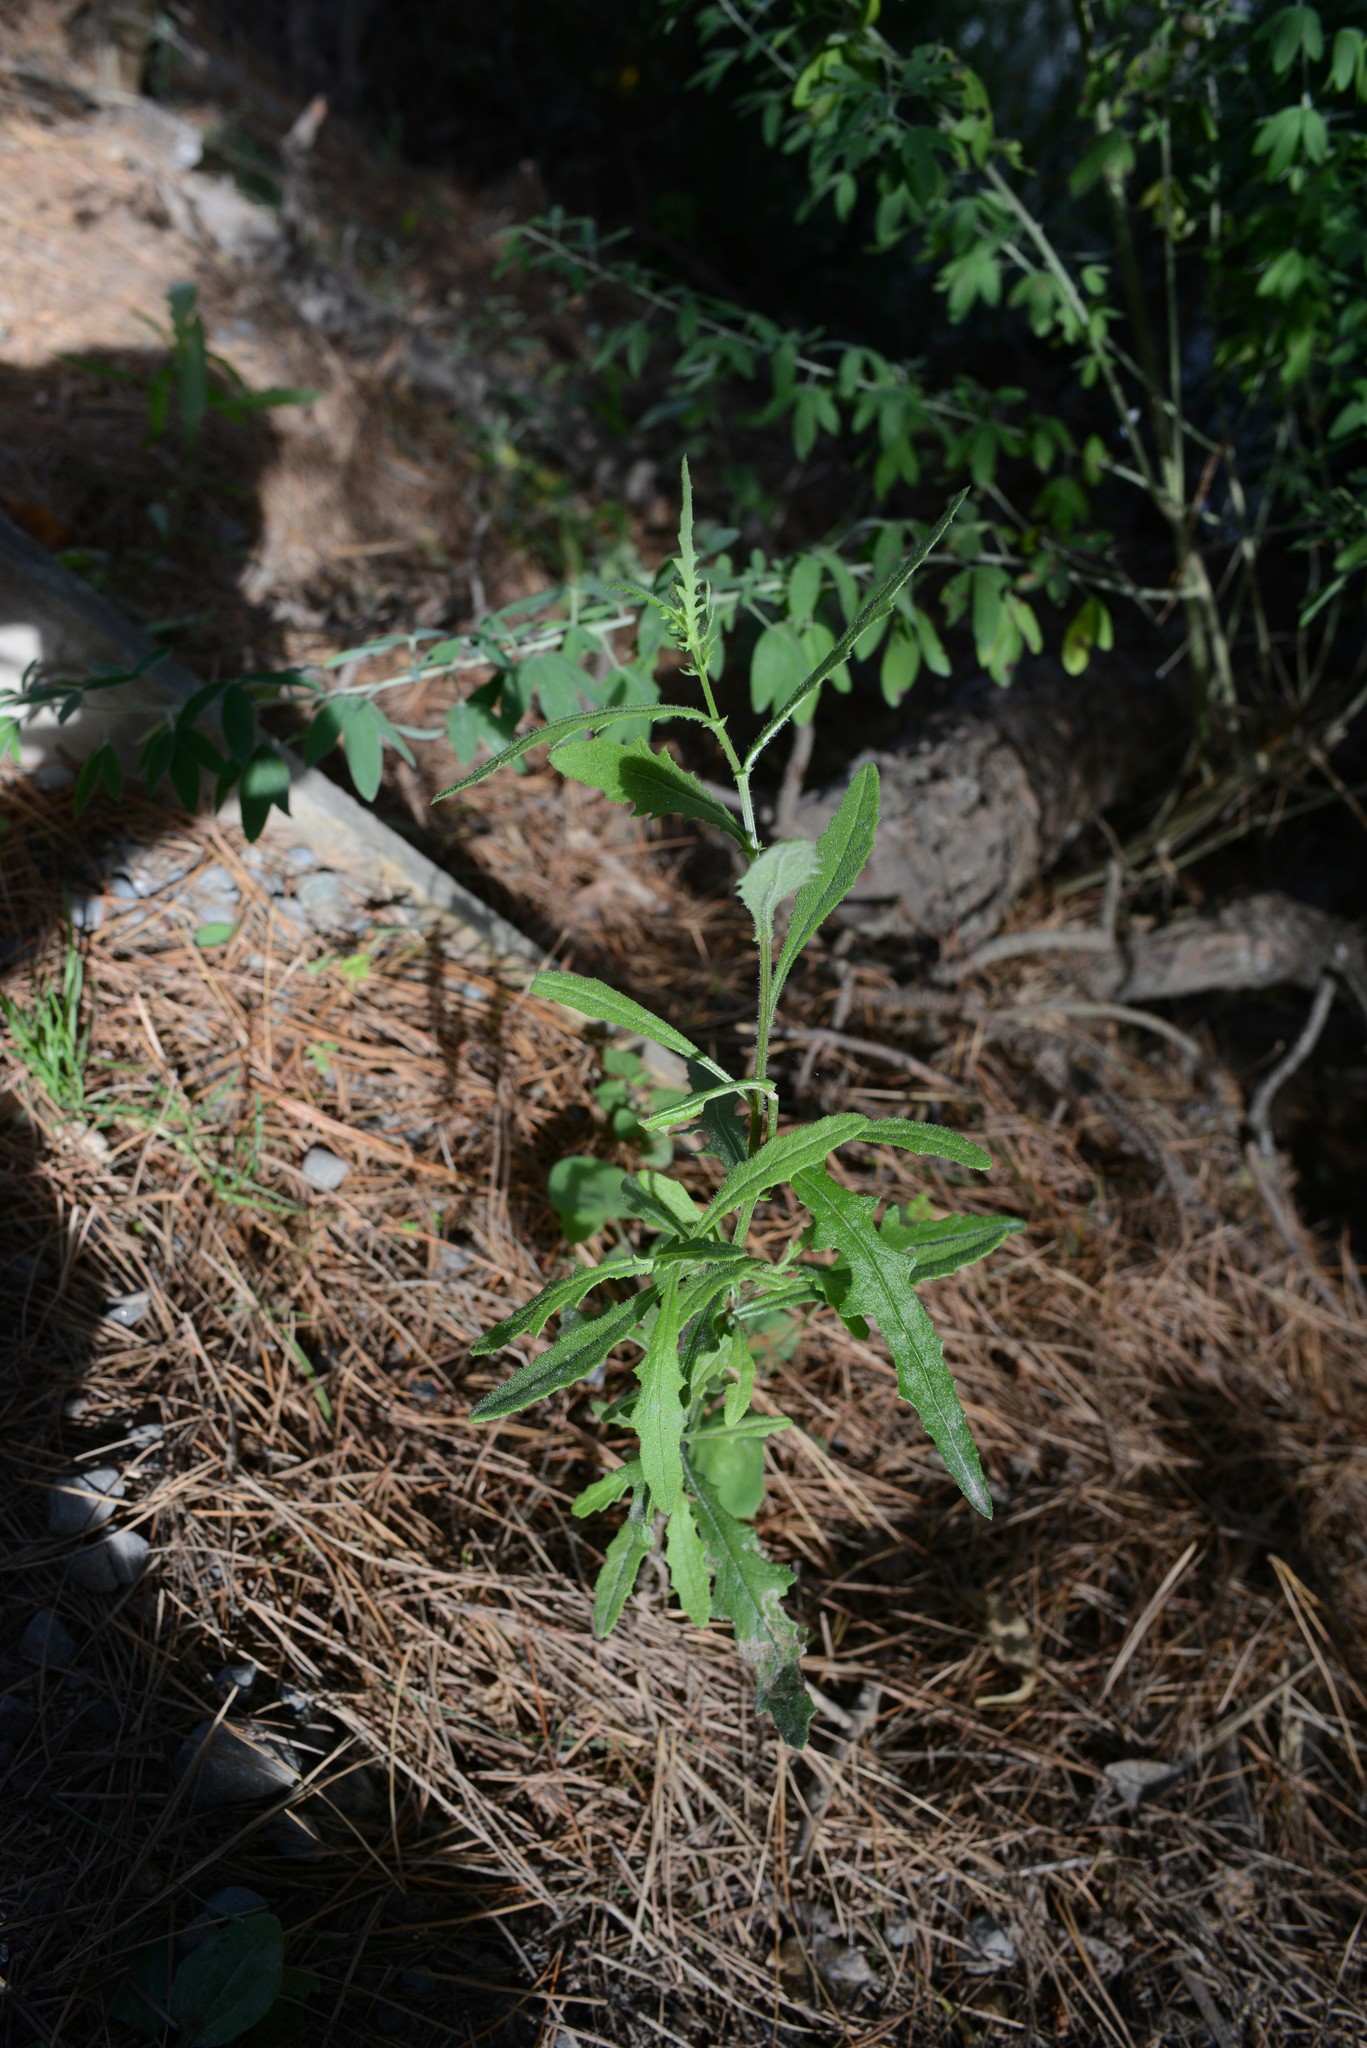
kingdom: Plantae
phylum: Tracheophyta
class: Magnoliopsida
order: Asterales
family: Asteraceae
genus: Senecio
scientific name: Senecio hispidulus
